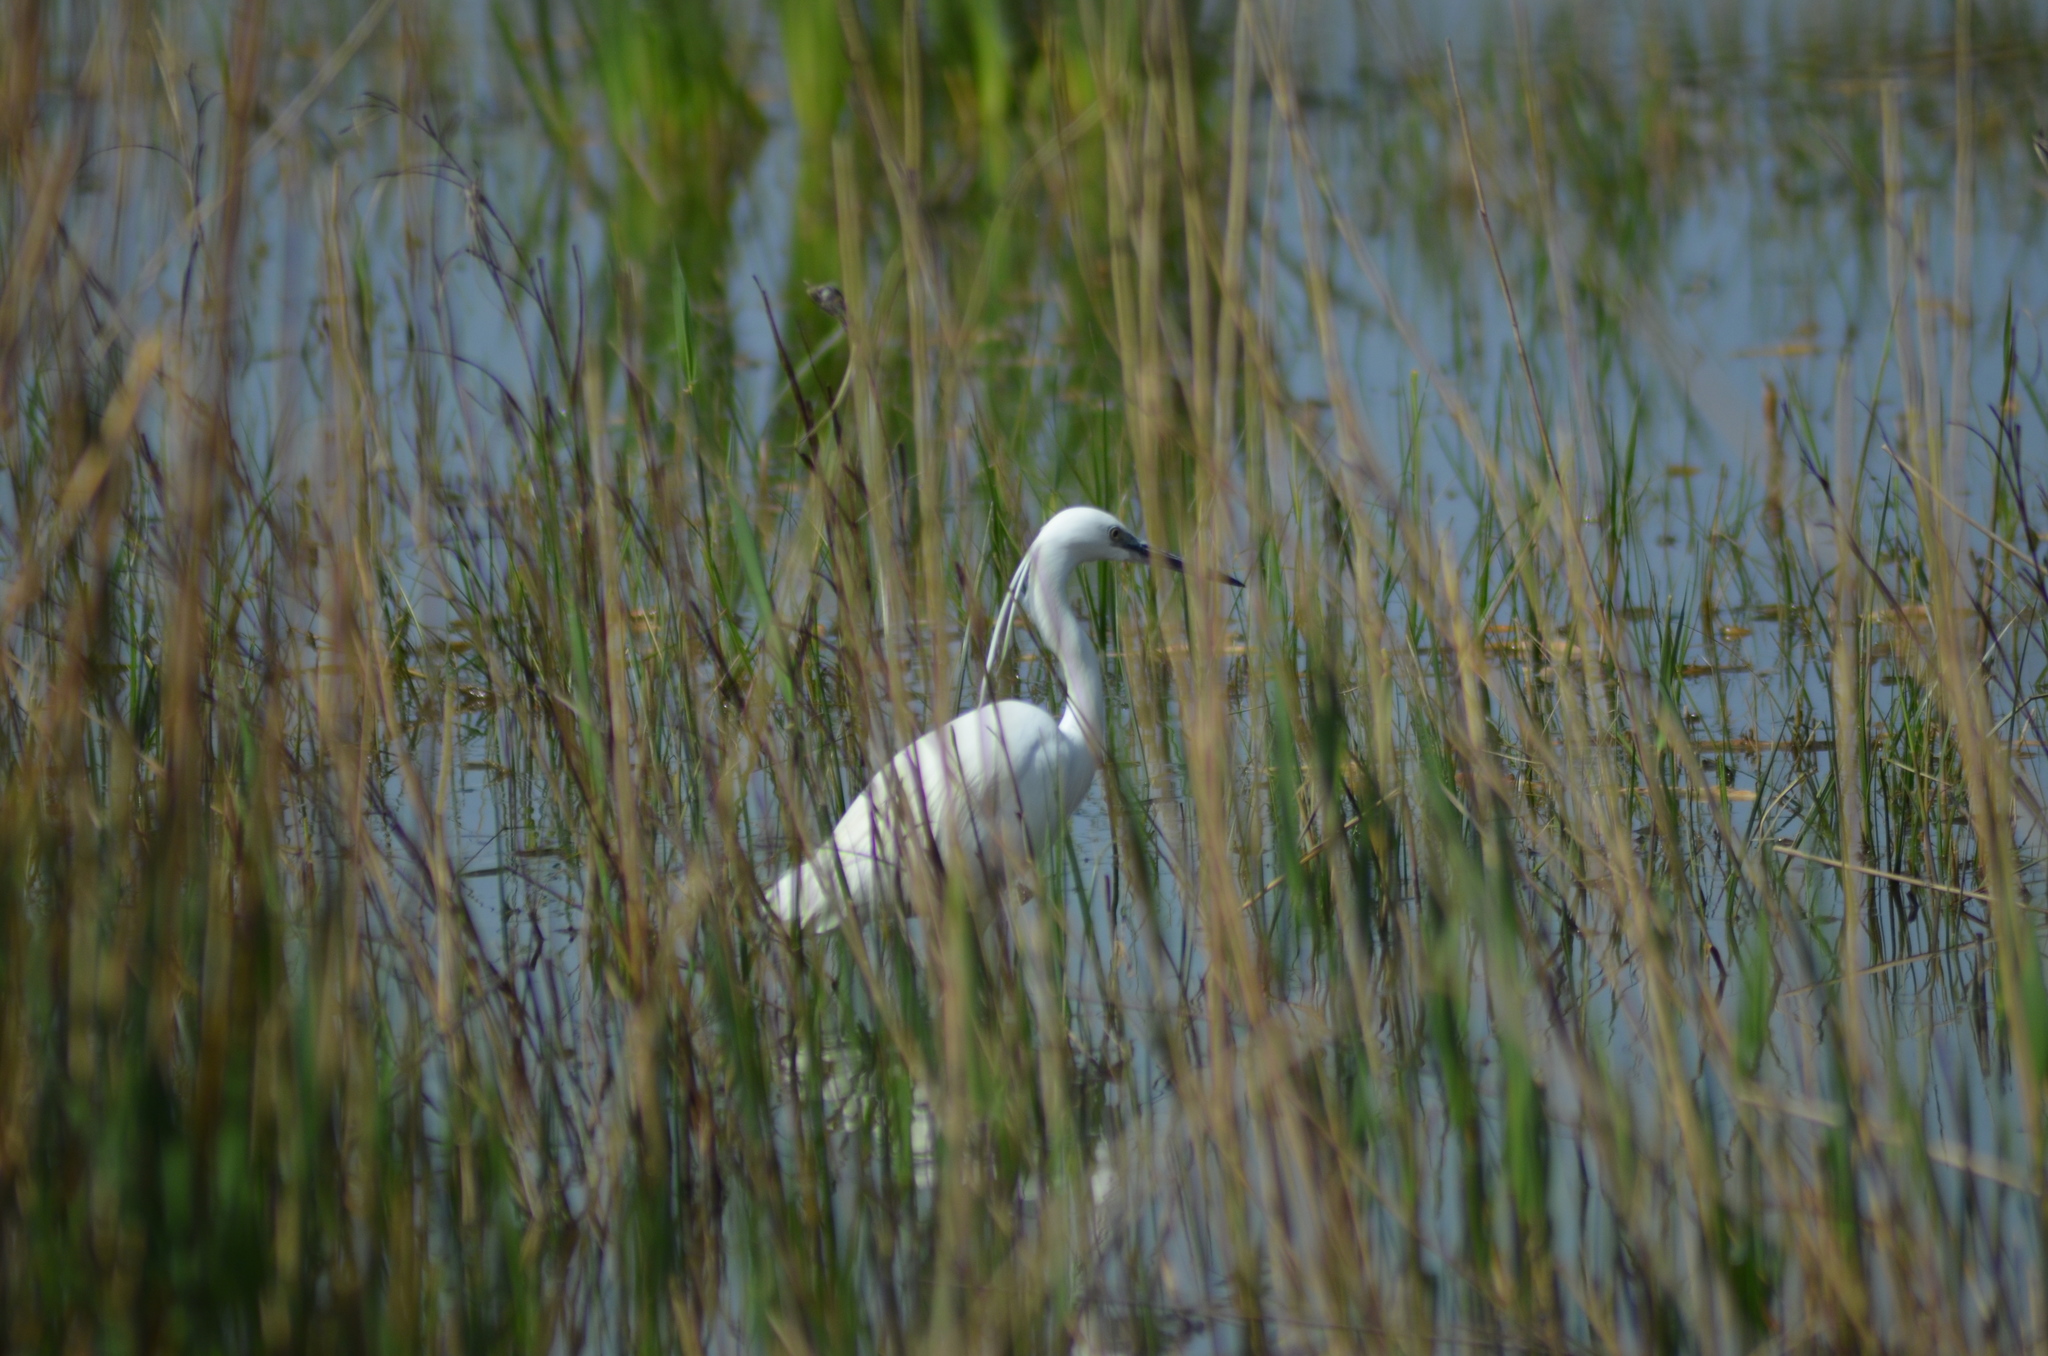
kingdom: Animalia
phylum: Chordata
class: Aves
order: Pelecaniformes
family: Ardeidae
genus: Egretta
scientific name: Egretta garzetta
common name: Little egret
